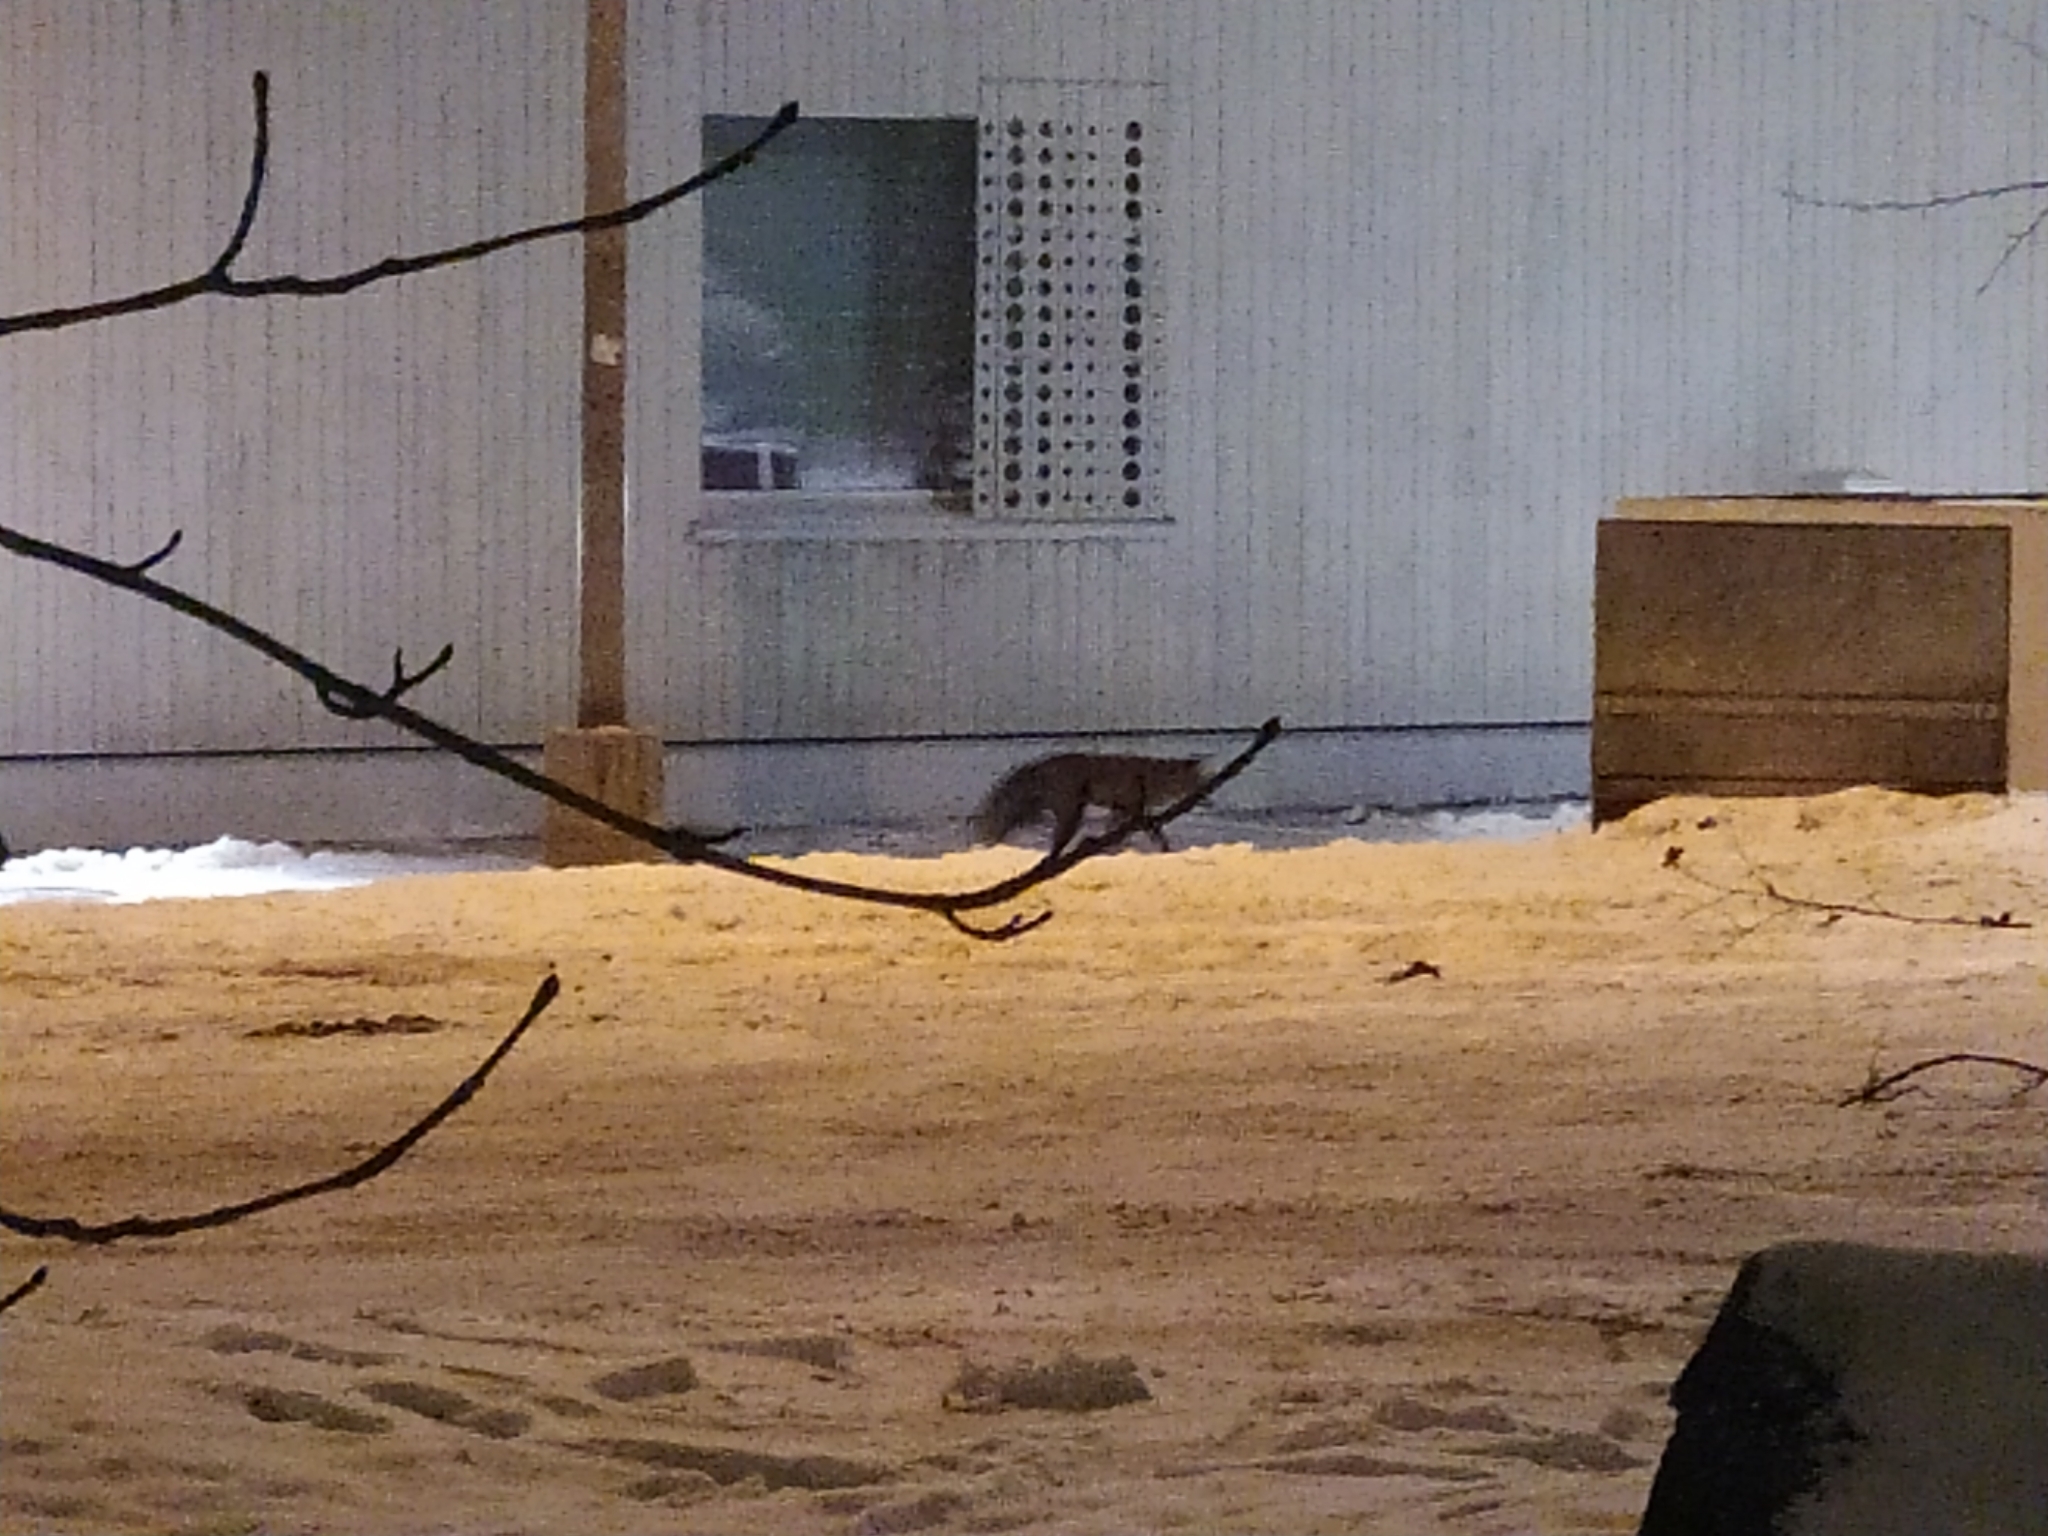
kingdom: Animalia
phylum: Chordata
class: Mammalia
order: Carnivora
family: Canidae
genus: Vulpes
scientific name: Vulpes vulpes
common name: Red fox
